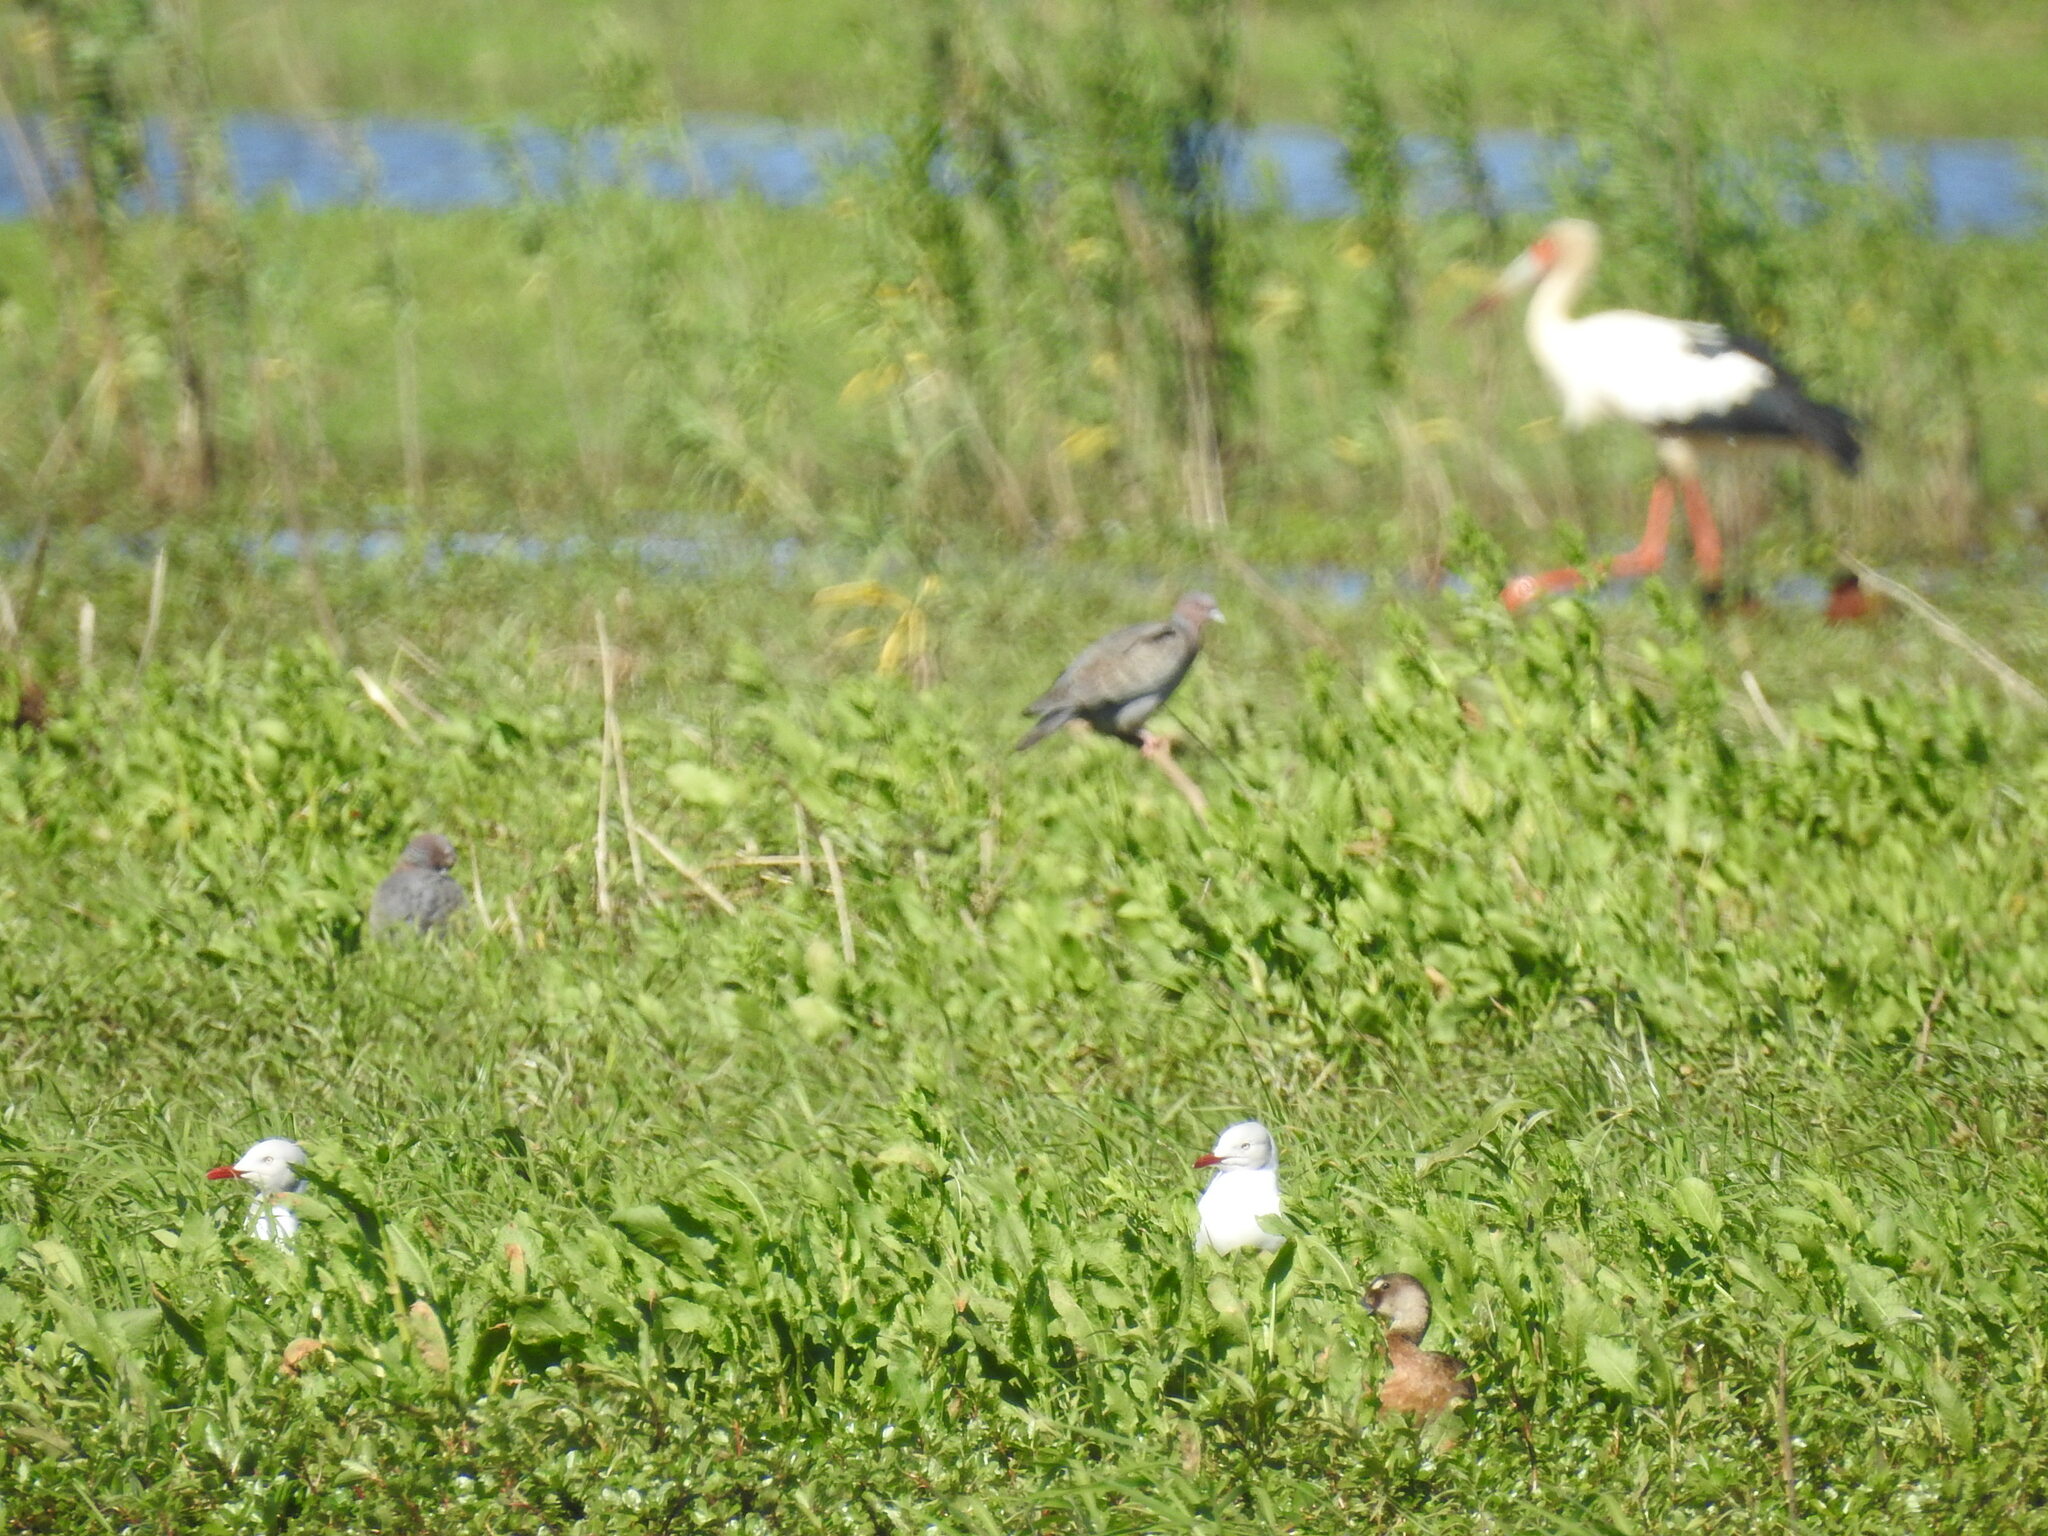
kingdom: Animalia
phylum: Chordata
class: Aves
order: Charadriiformes
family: Laridae
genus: Chroicocephalus
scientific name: Chroicocephalus cirrocephalus
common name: Grey-headed gull
